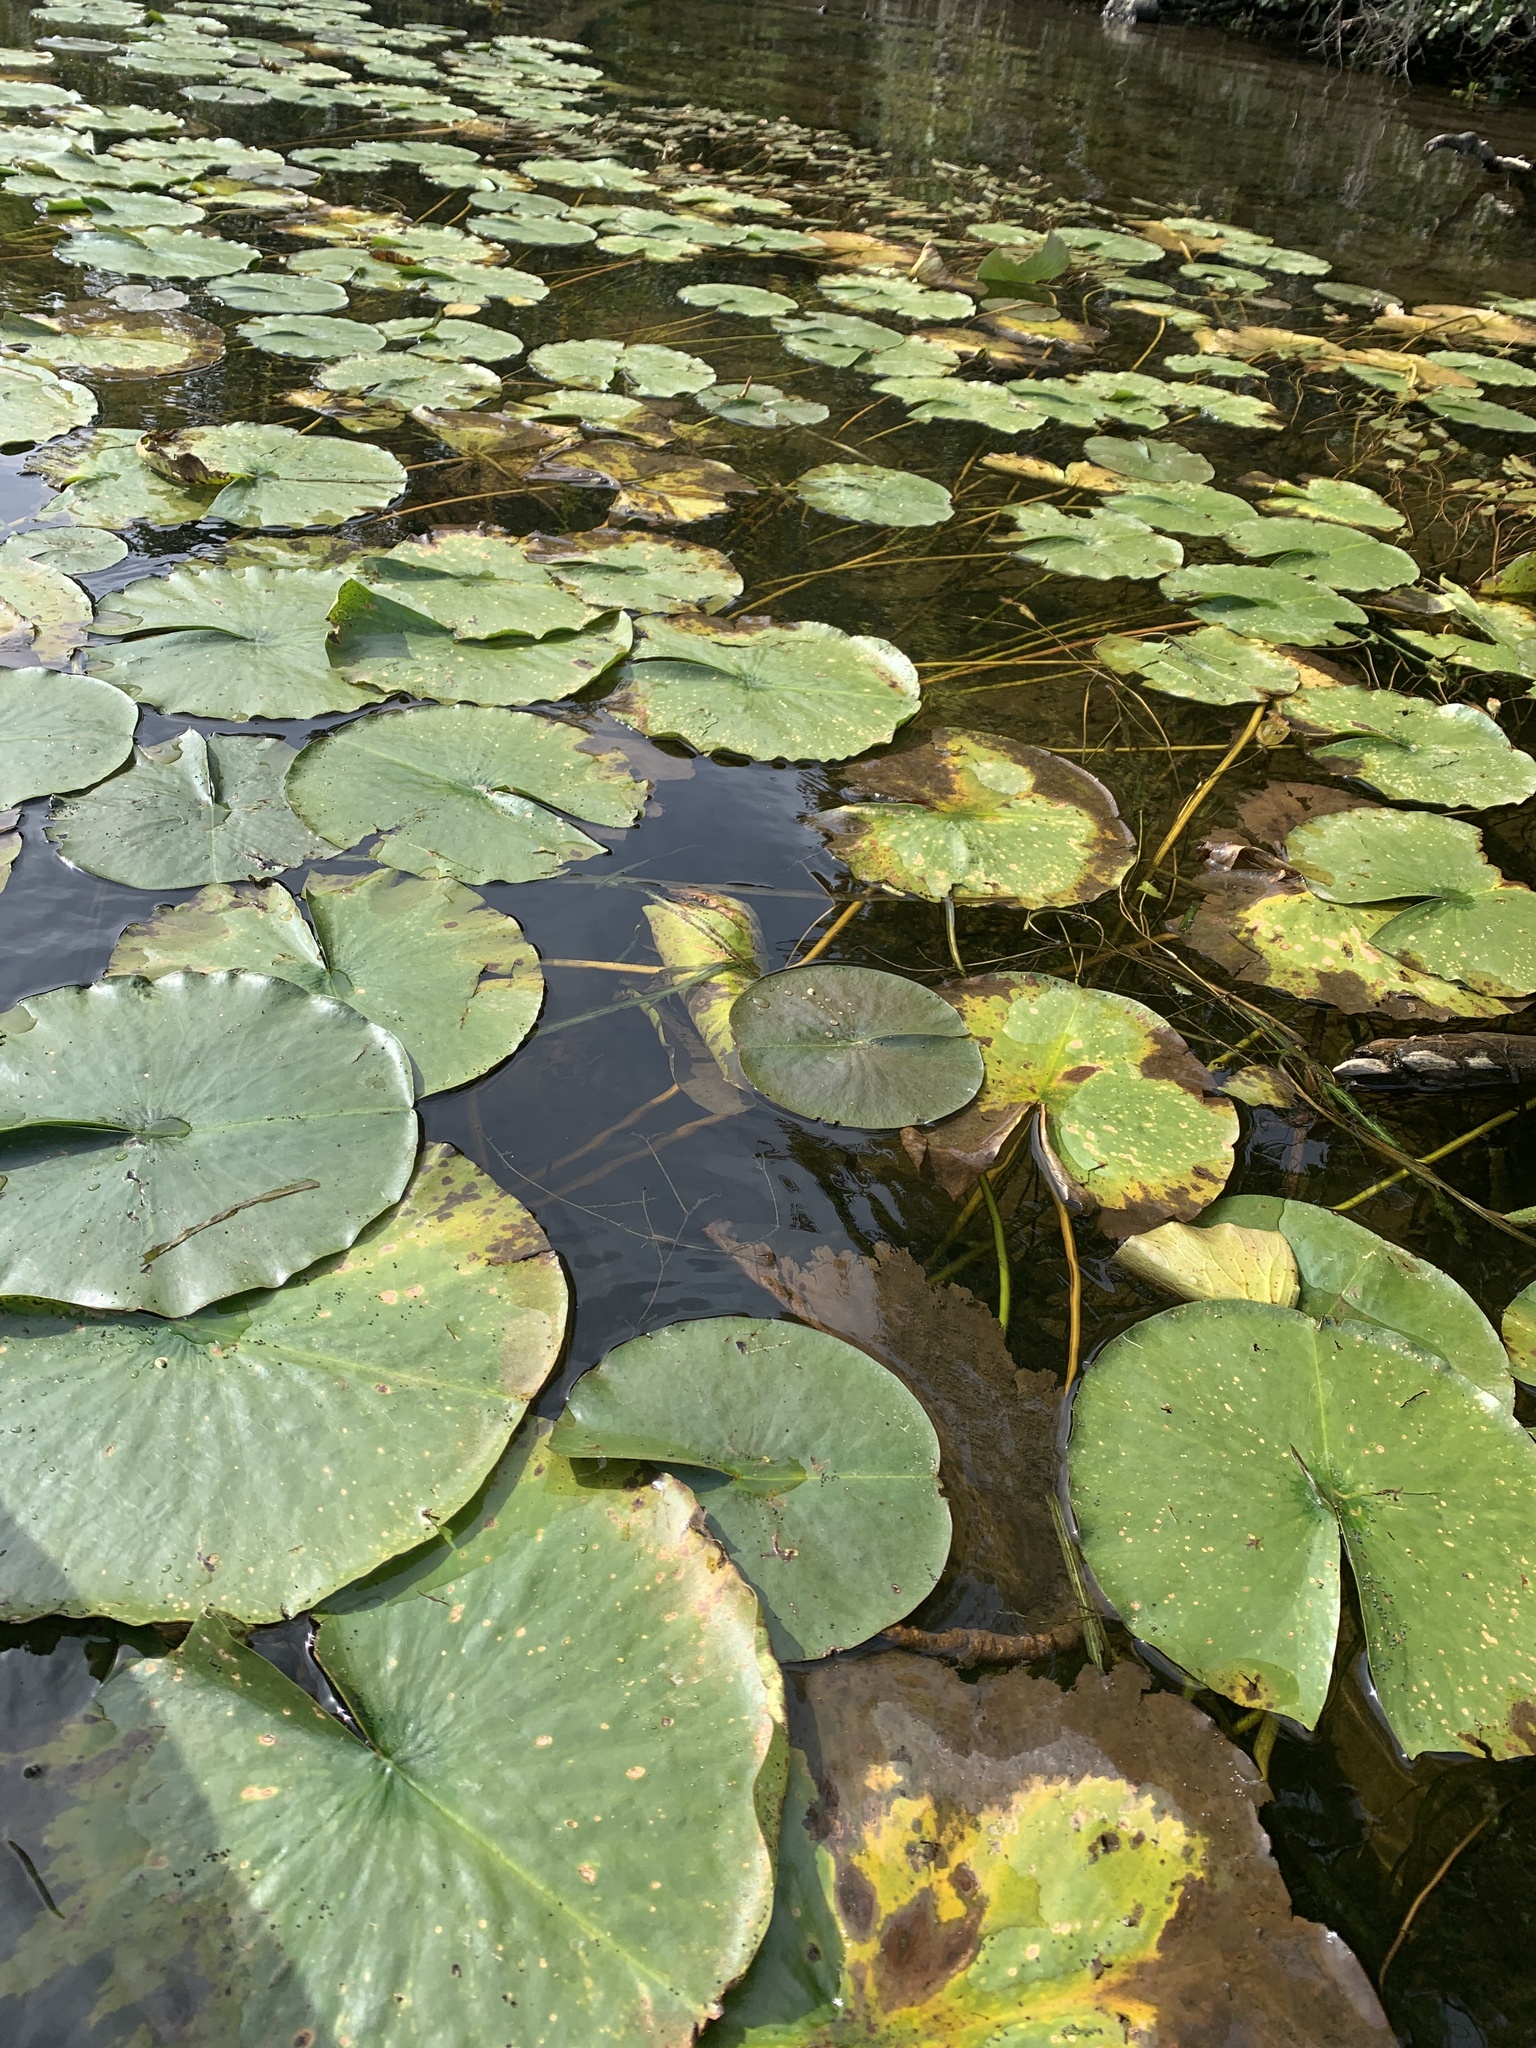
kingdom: Plantae
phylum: Tracheophyta
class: Magnoliopsida
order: Nymphaeales
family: Nymphaeaceae
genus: Nymphaea
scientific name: Nymphaea odorata
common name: Fragrant water-lily
